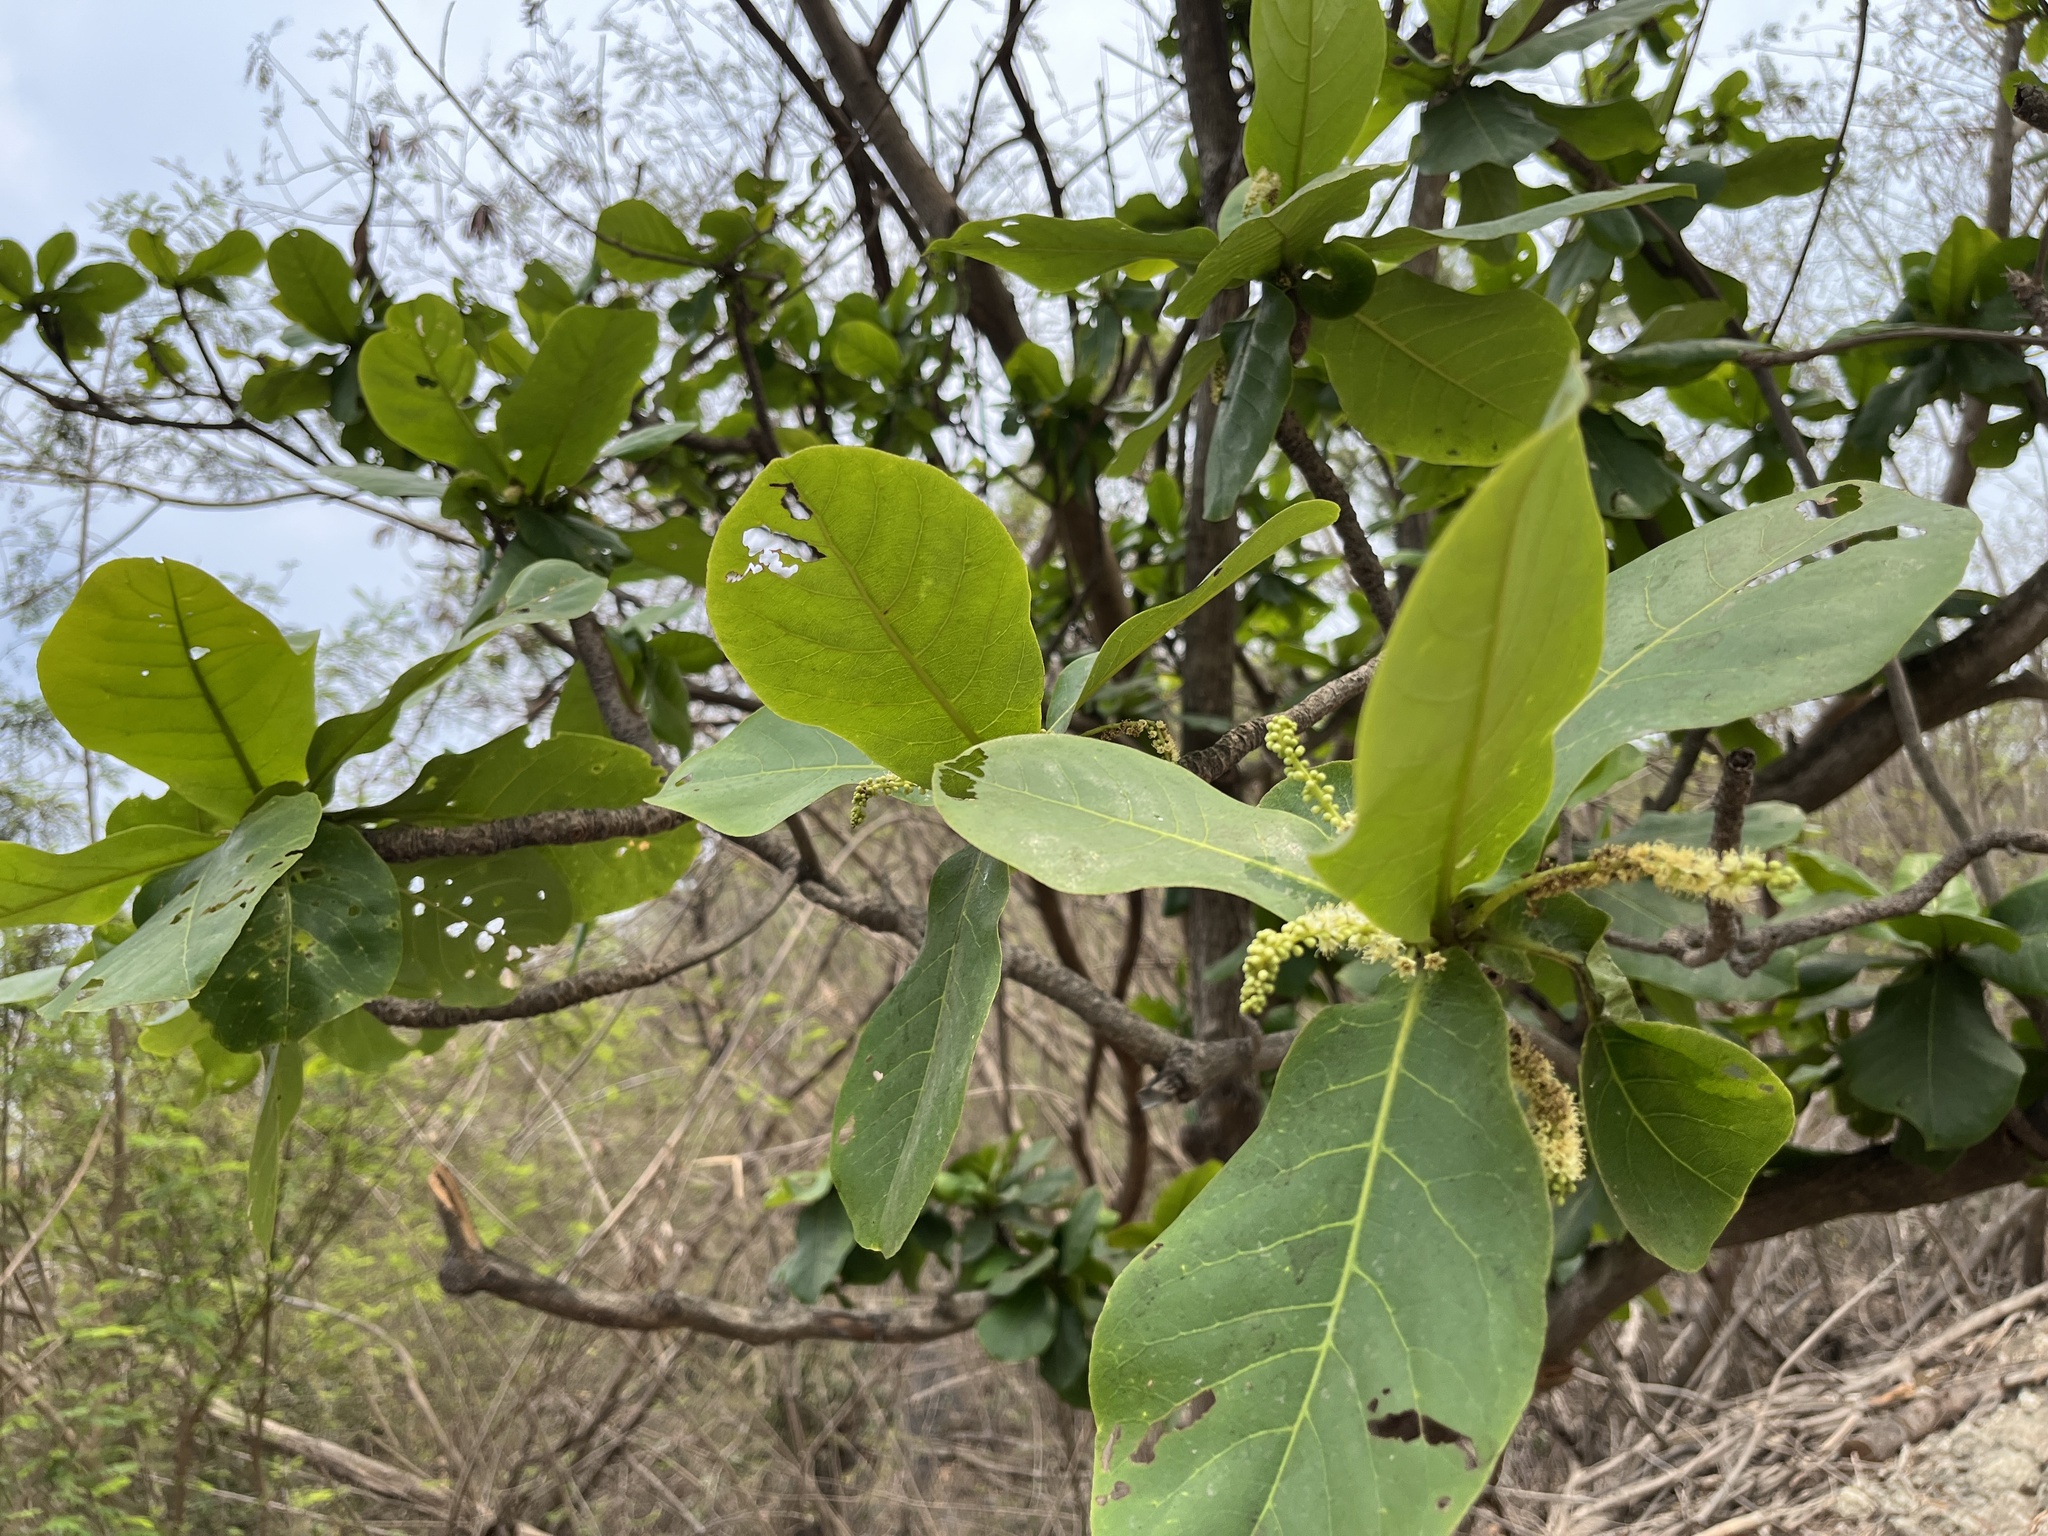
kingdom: Plantae
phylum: Tracheophyta
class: Magnoliopsida
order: Myrtales
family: Combretaceae
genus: Terminalia
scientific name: Terminalia catappa
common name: Tropical almond
